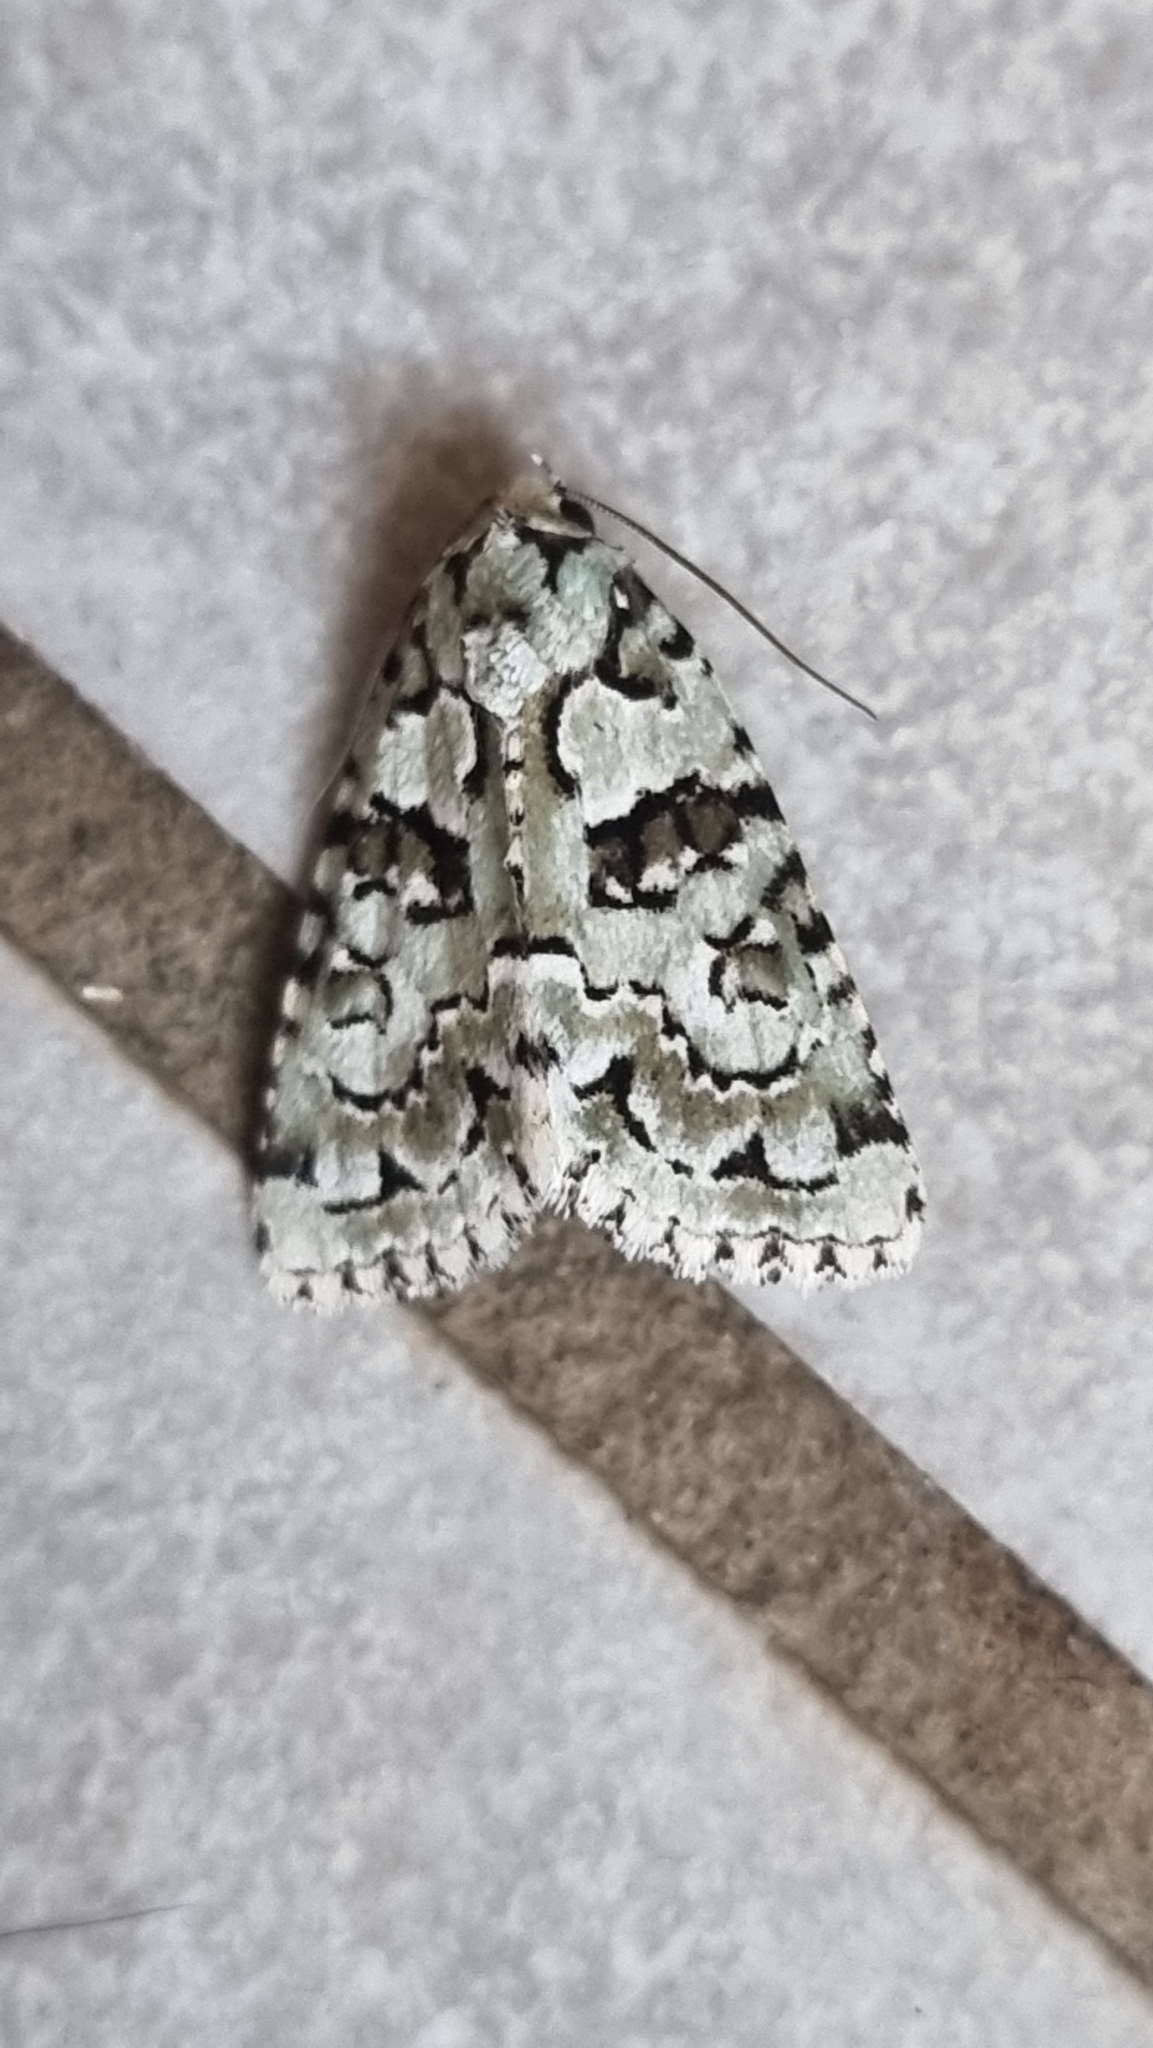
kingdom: Animalia
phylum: Arthropoda
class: Insecta
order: Lepidoptera
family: Noctuidae
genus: Nyctobrya
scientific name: Nyctobrya muralis
